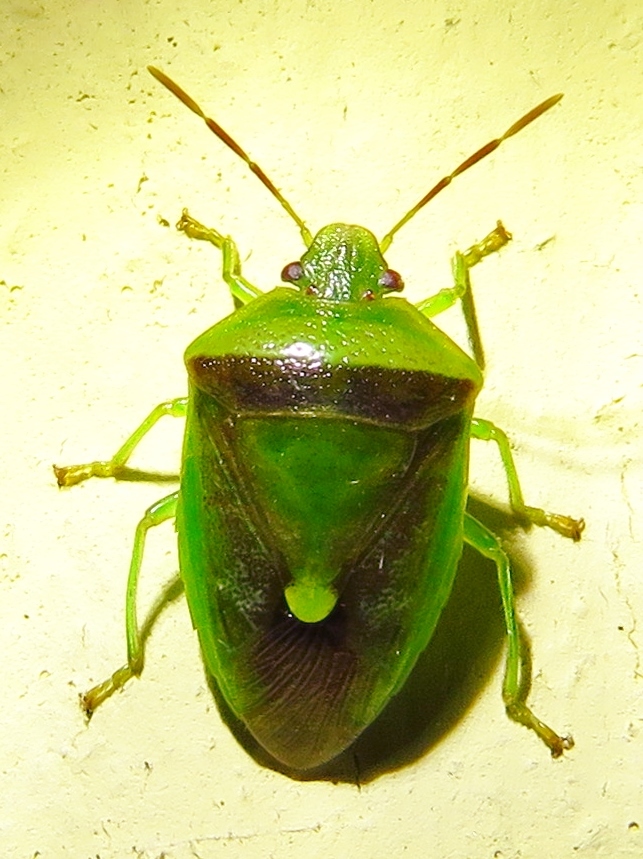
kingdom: Animalia
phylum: Arthropoda
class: Insecta
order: Hemiptera
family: Pentatomidae
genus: Banasa
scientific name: Banasa dimidiata
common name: Green burgundy stink bug
